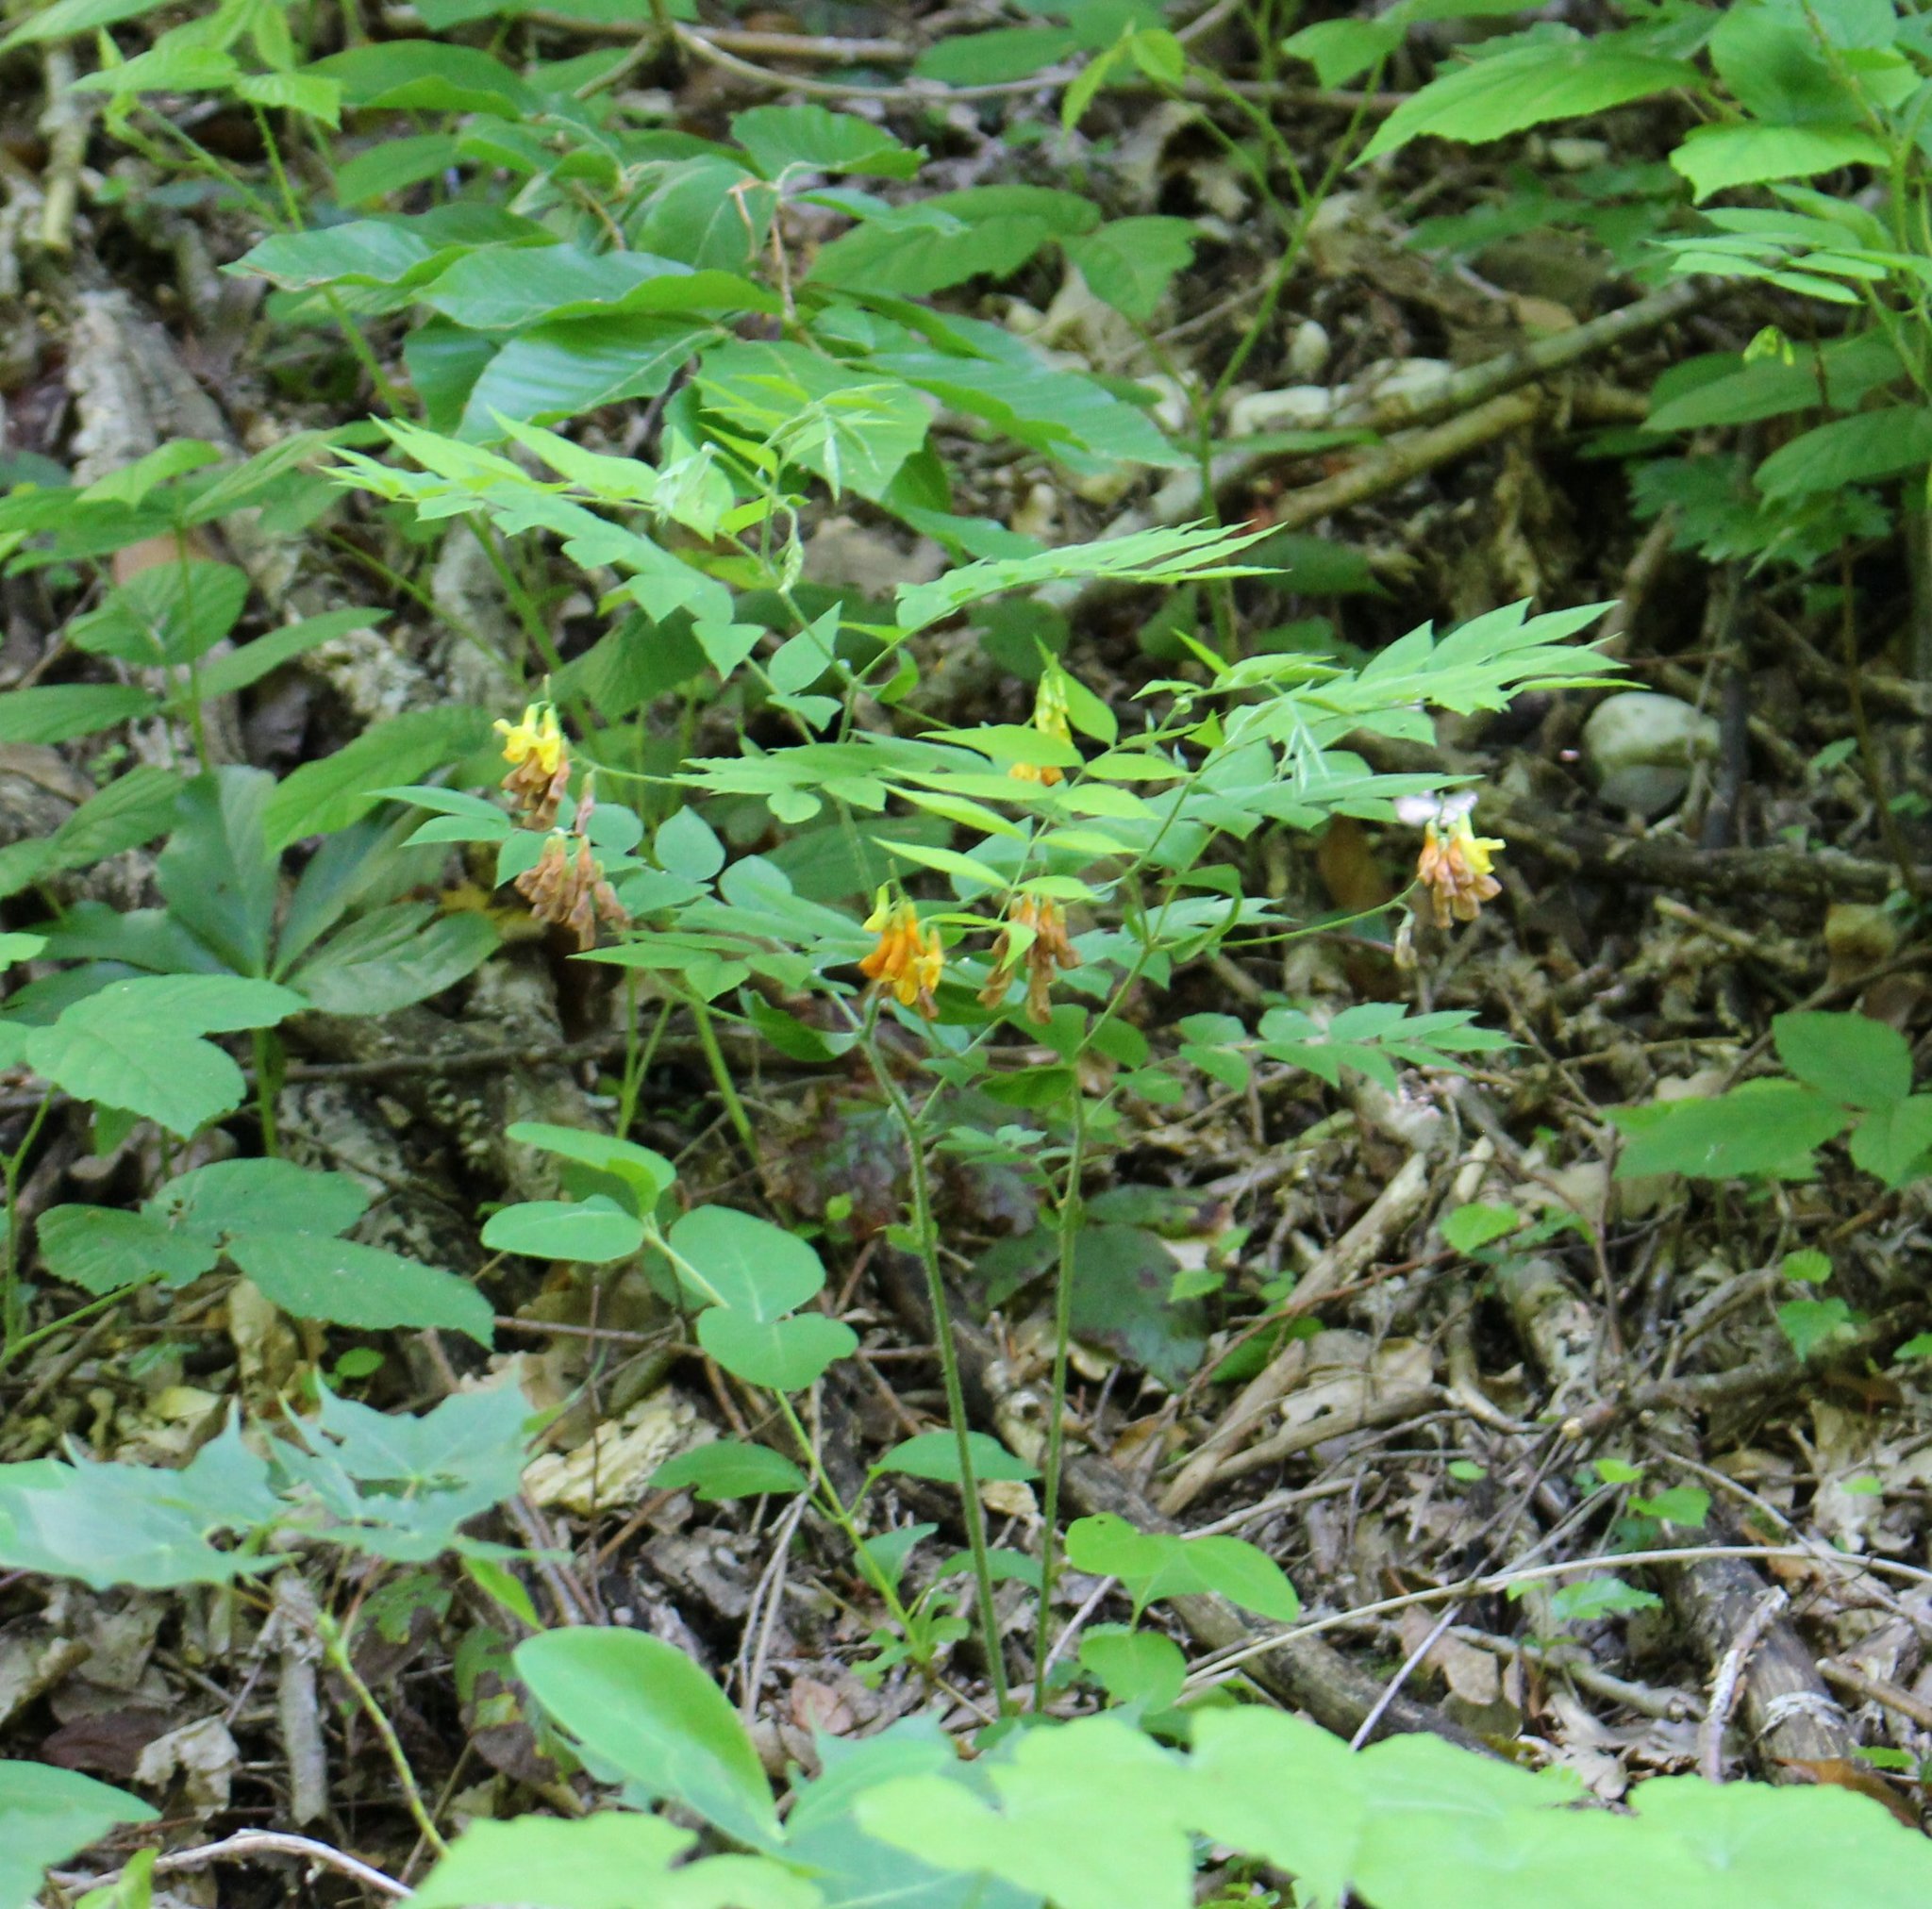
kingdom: Plantae
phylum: Tracheophyta
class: Magnoliopsida
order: Fabales
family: Fabaceae
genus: Vicia
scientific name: Vicia crocea
